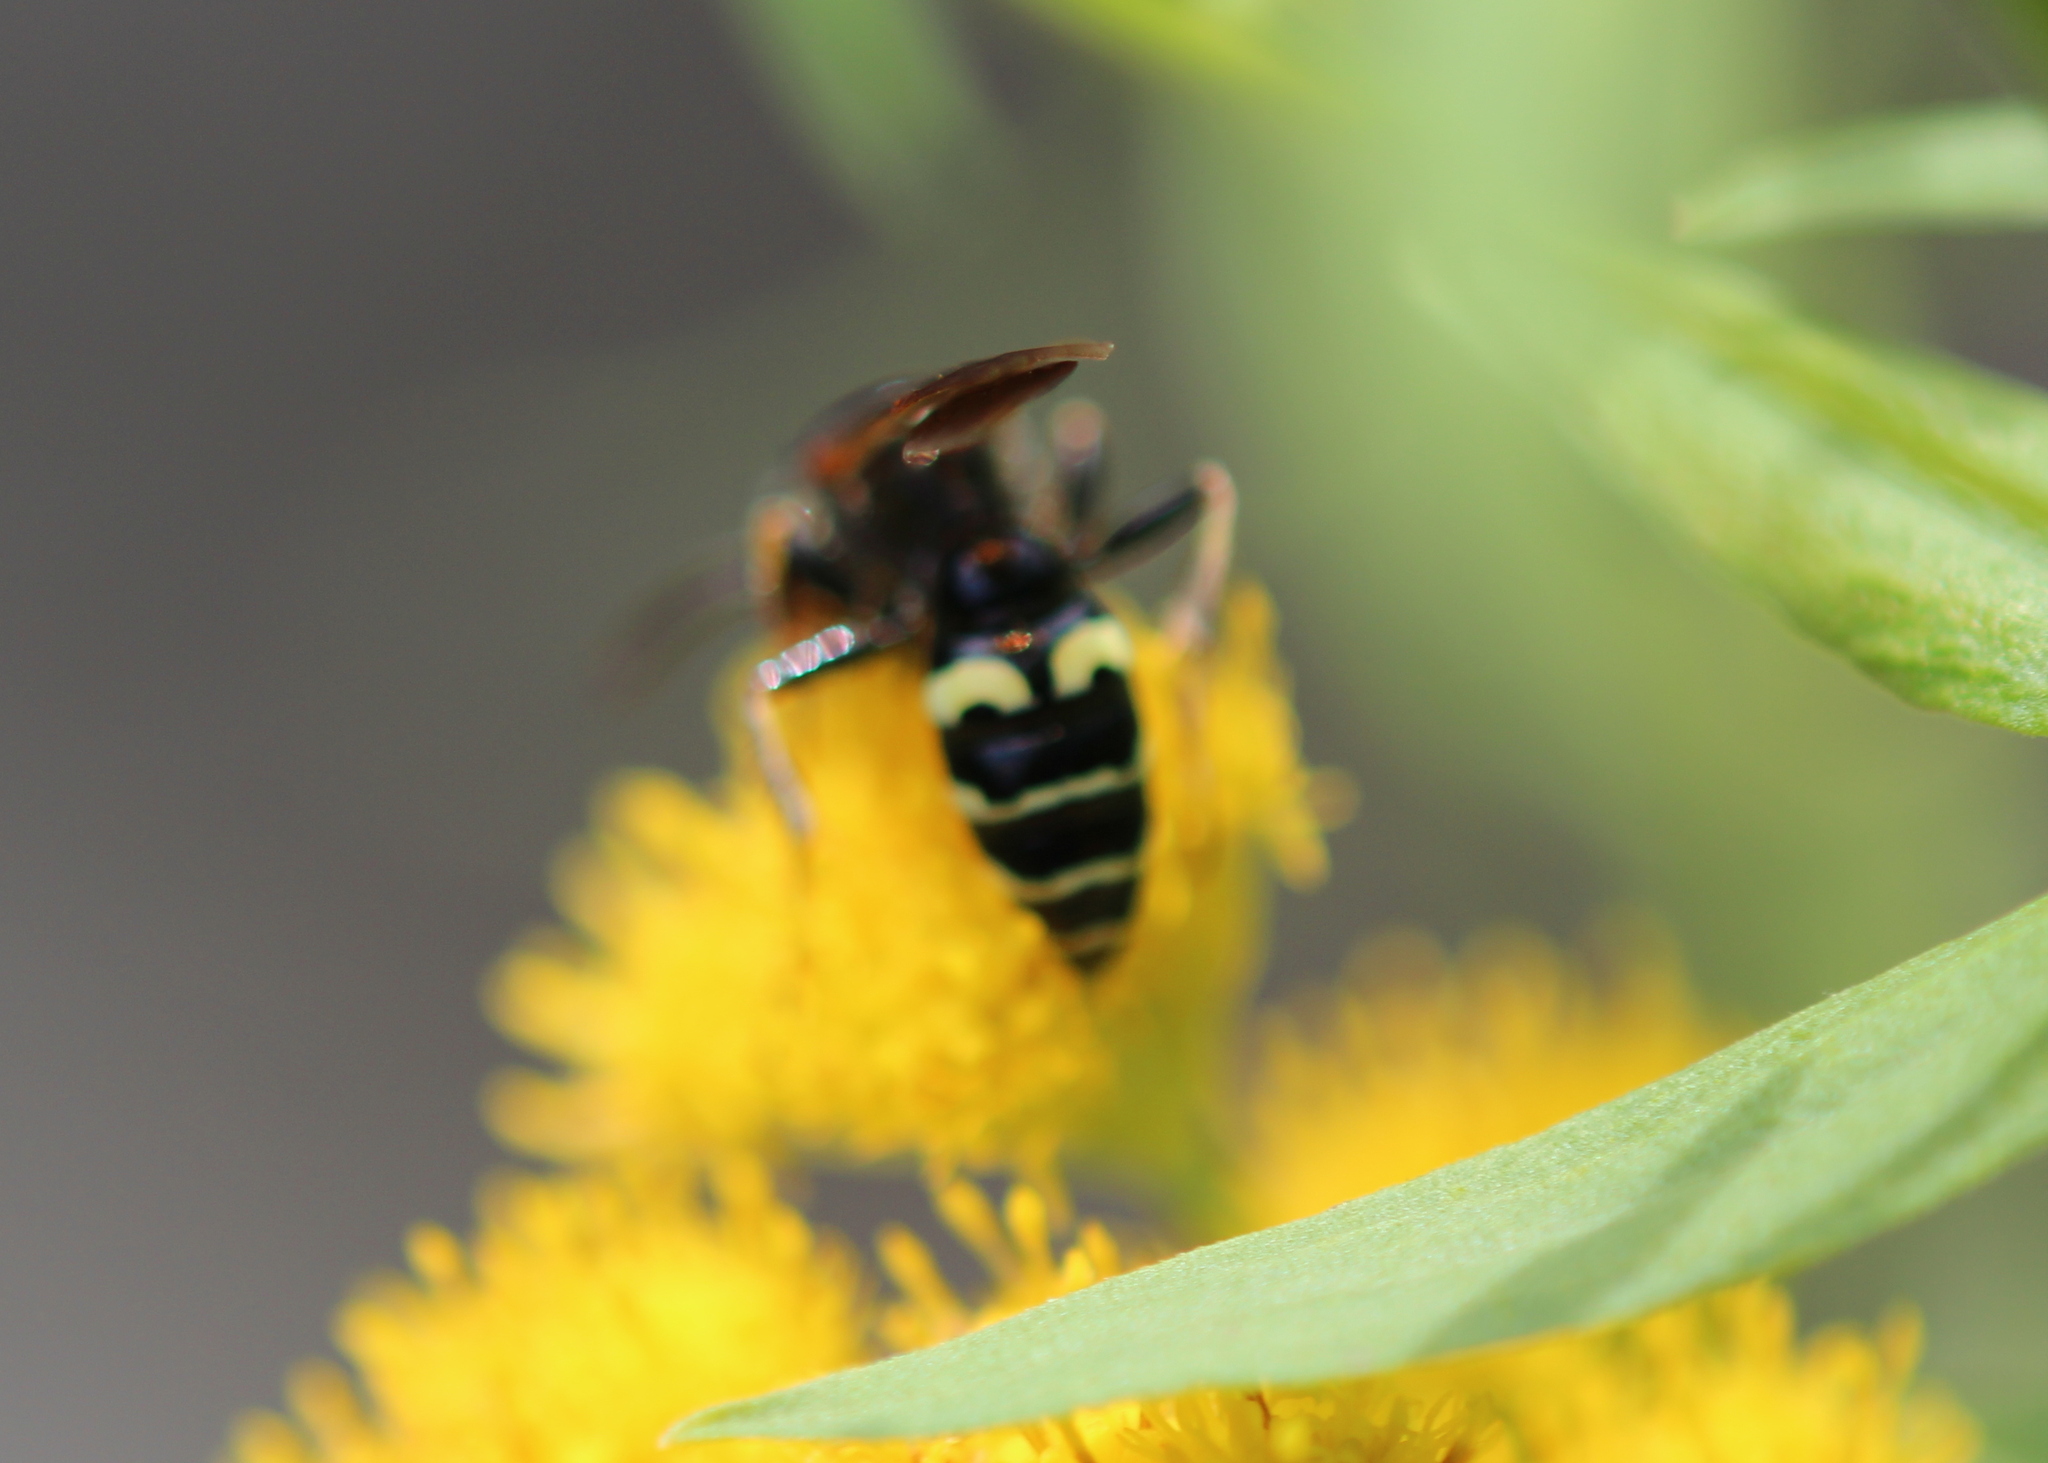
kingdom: Animalia
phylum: Arthropoda
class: Insecta
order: Hymenoptera
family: Crabronidae
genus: Philanthus
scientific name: Philanthus bilunatus
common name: Two moons beewolf
